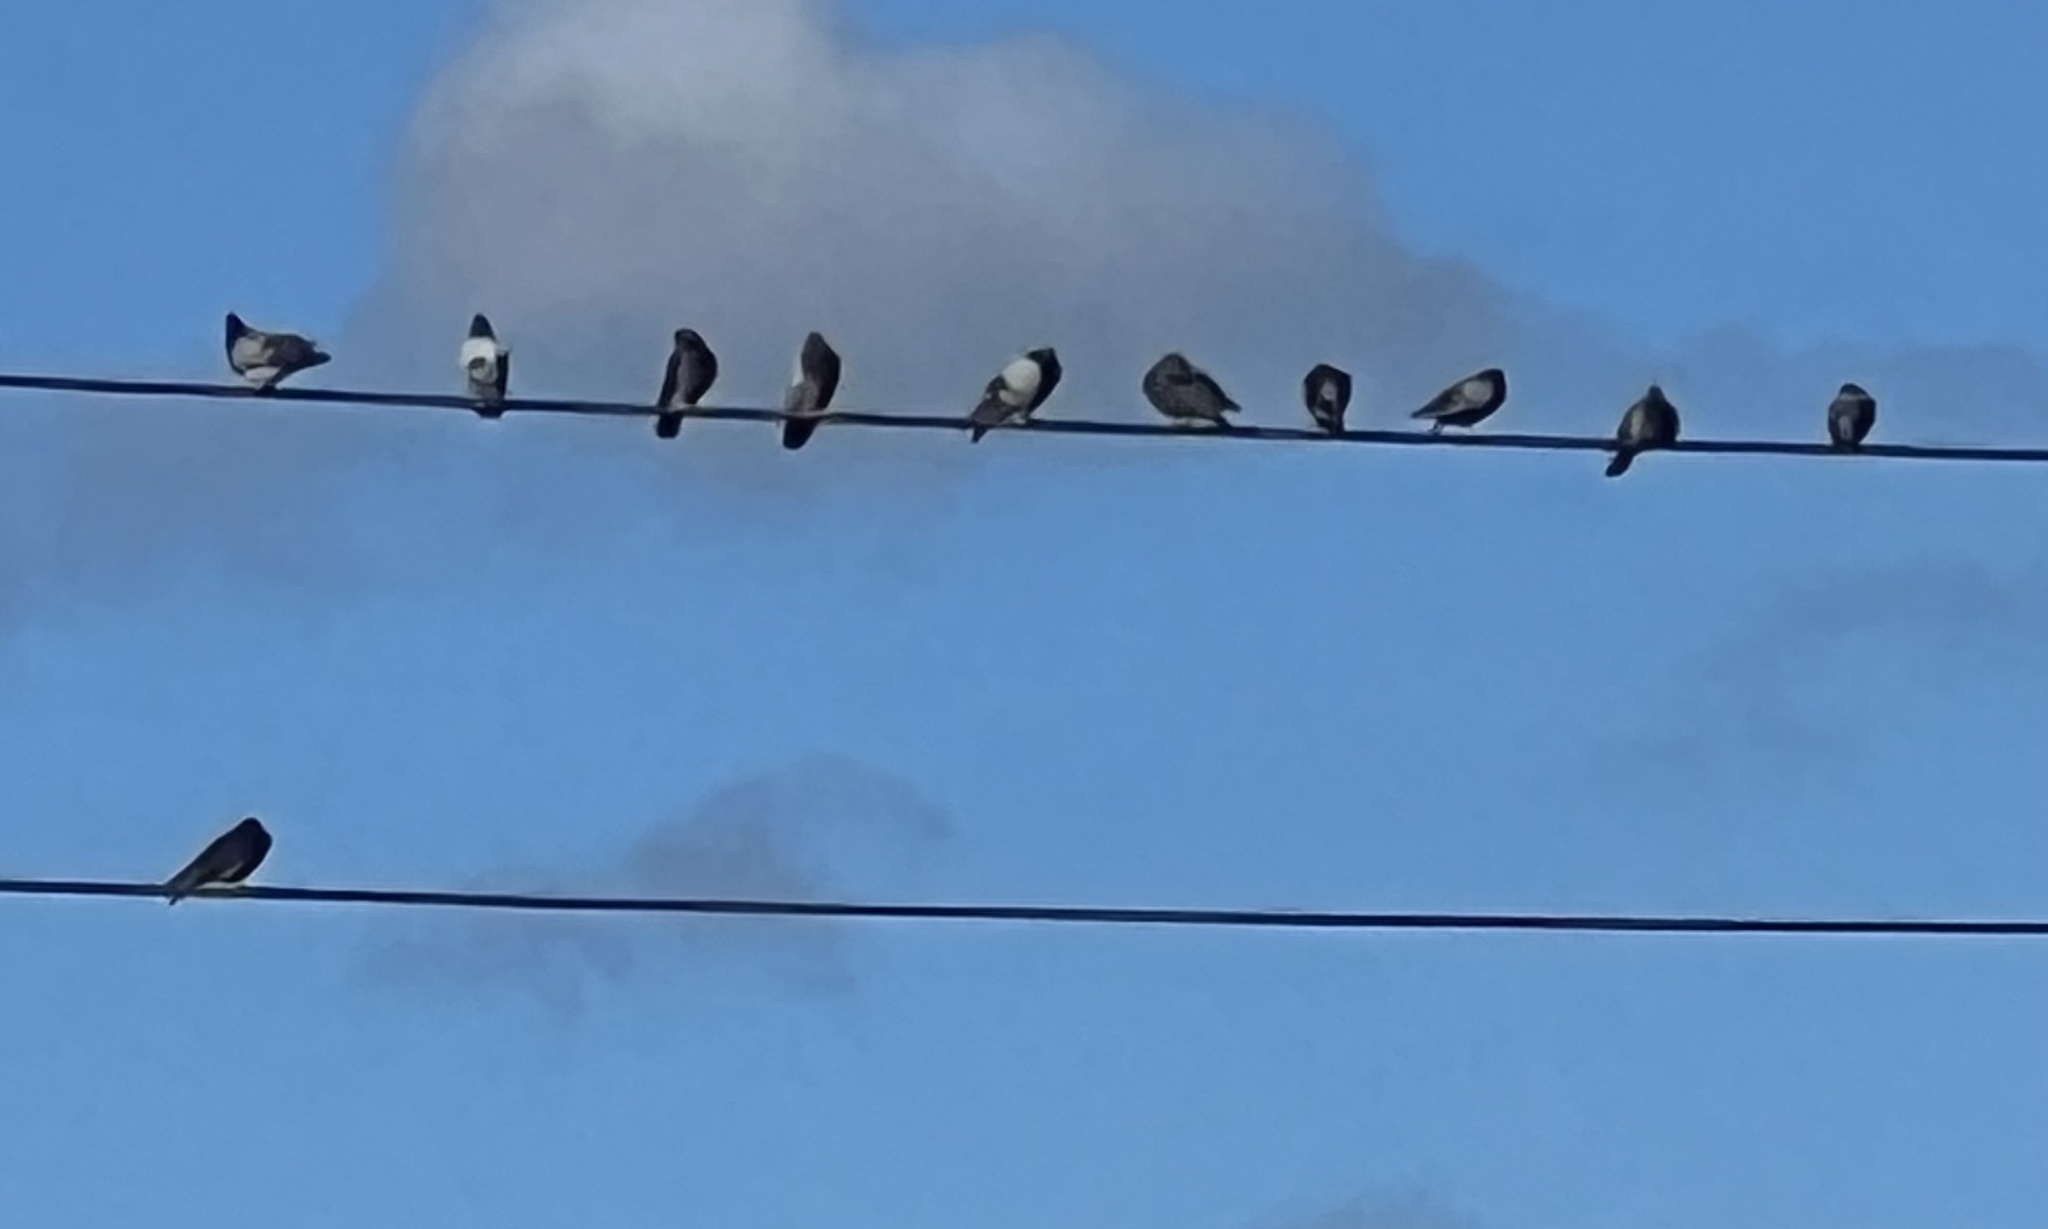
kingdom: Animalia
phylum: Chordata
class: Aves
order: Columbiformes
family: Columbidae
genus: Columba
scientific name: Columba livia
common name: Rock pigeon
